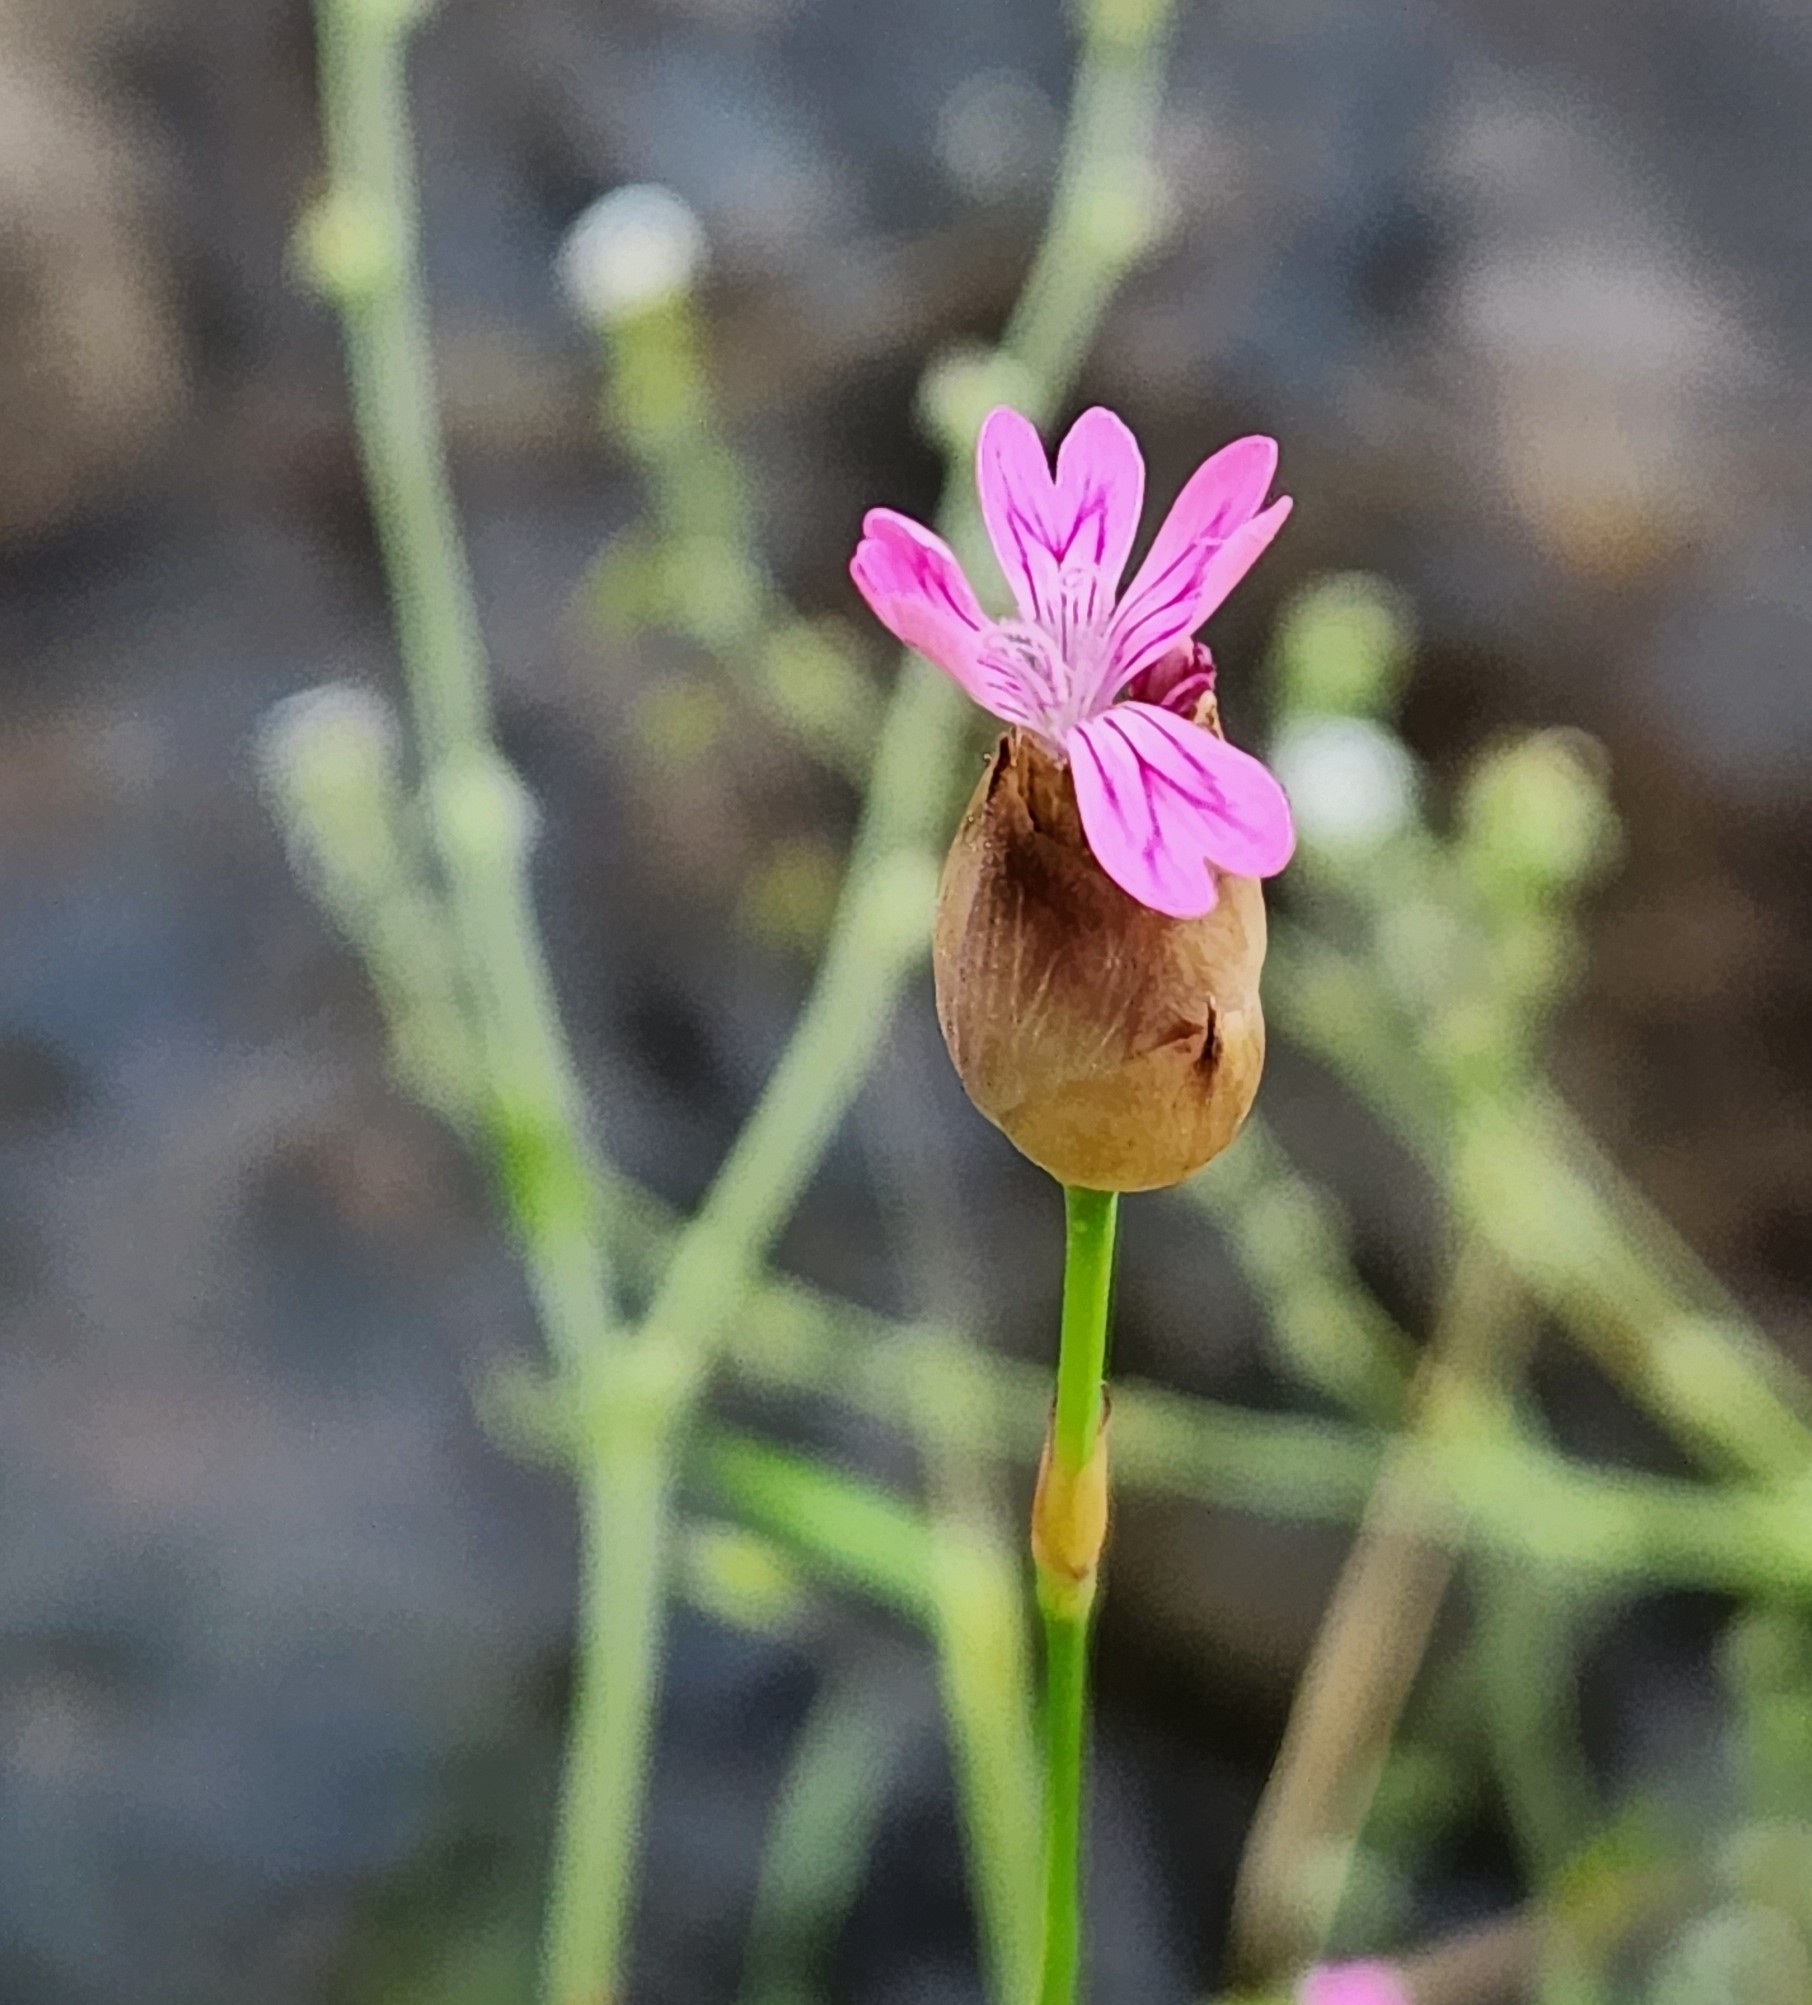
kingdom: Plantae
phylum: Tracheophyta
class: Magnoliopsida
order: Caryophyllales
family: Caryophyllaceae
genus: Petrorhagia
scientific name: Petrorhagia dubia
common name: Hairypink
